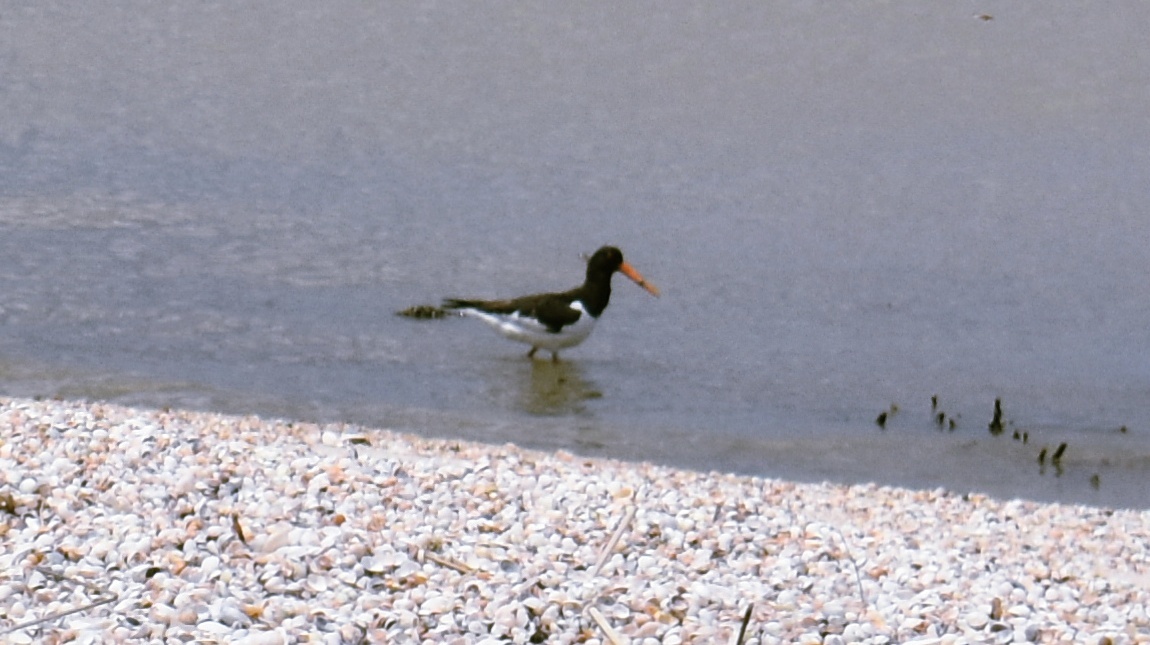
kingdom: Animalia
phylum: Chordata
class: Aves
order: Charadriiformes
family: Haematopodidae
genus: Haematopus
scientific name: Haematopus ostralegus
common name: Eurasian oystercatcher
